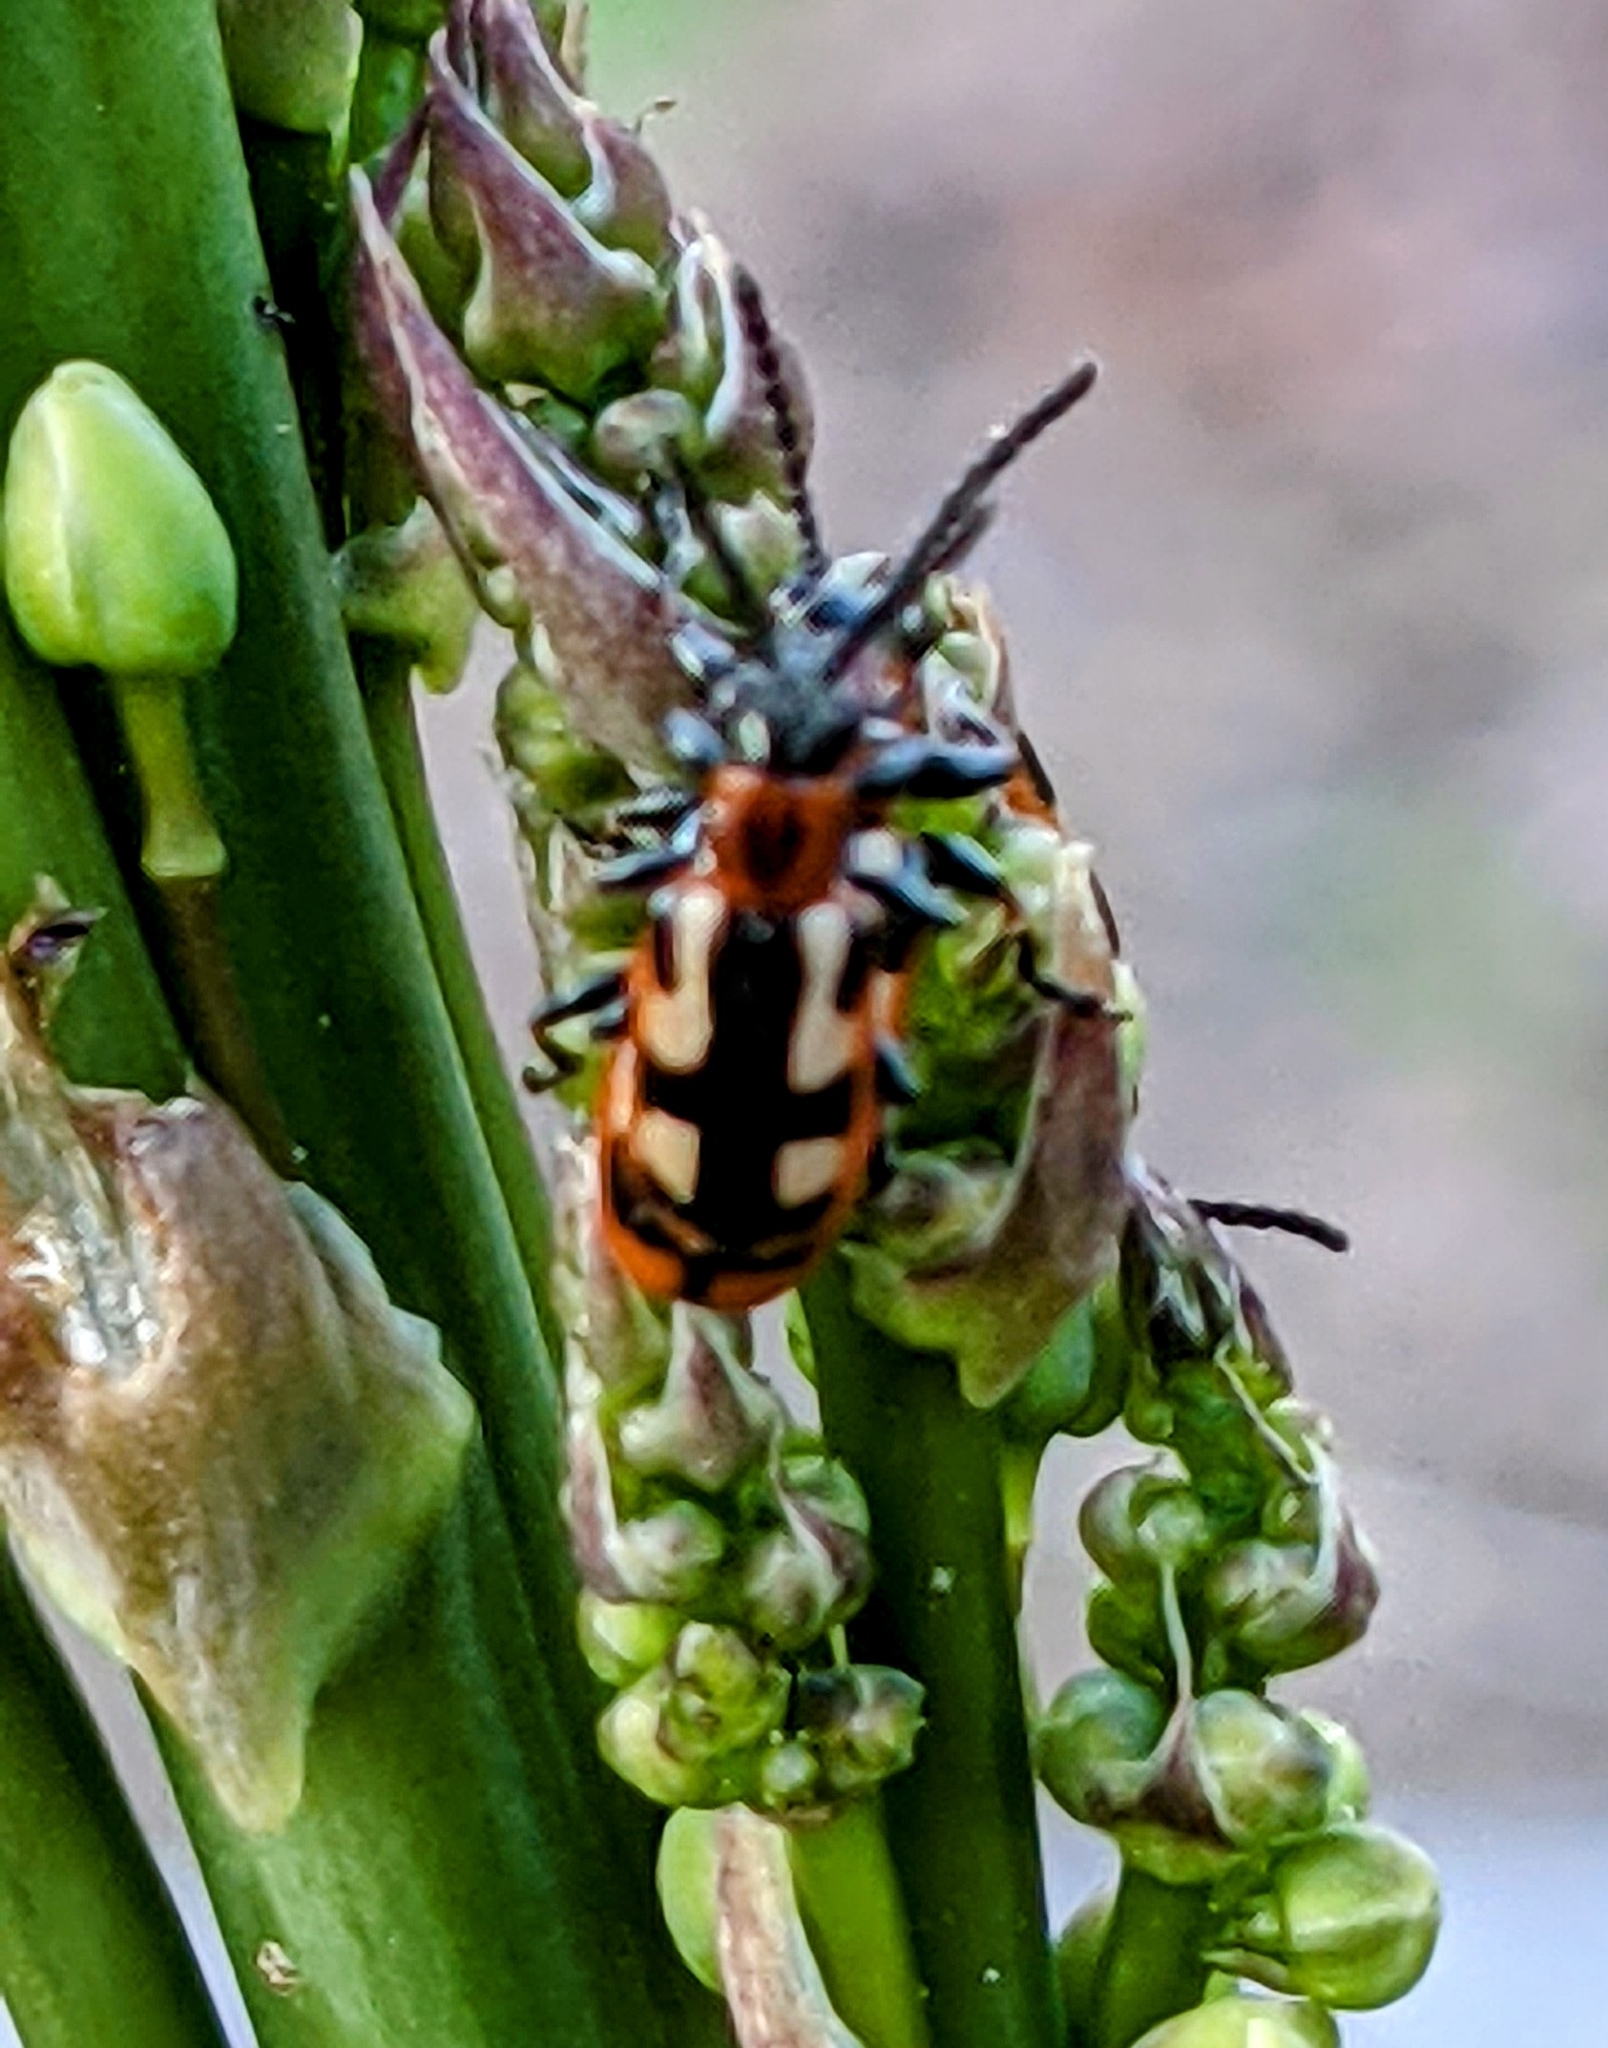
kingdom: Animalia
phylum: Arthropoda
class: Insecta
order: Coleoptera
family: Chrysomelidae
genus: Crioceris
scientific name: Crioceris asparagi
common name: Asparagus beetle
